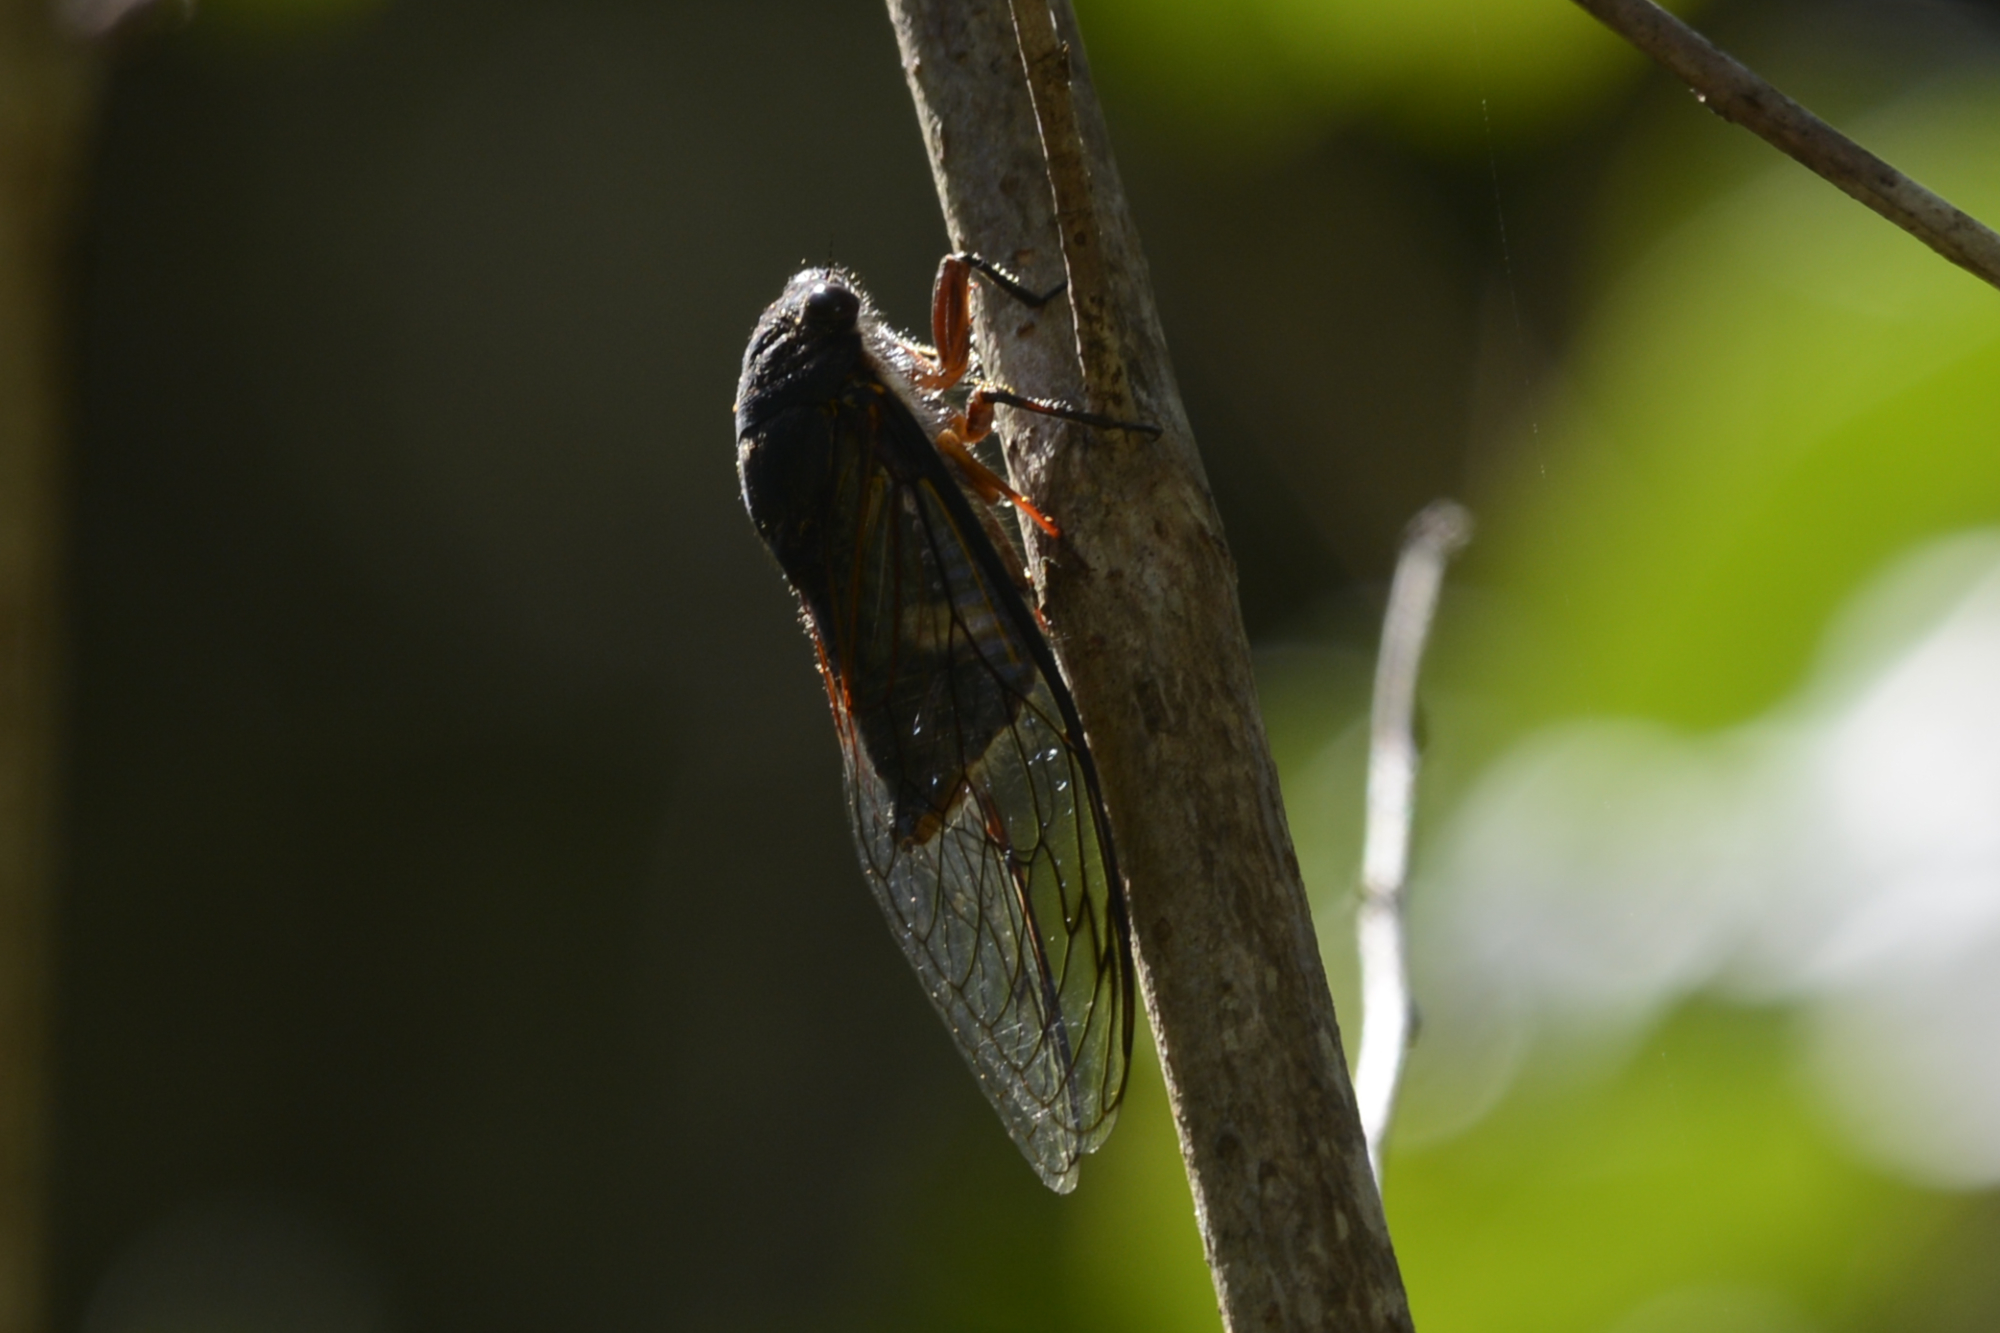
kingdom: Animalia
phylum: Arthropoda
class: Insecta
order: Hemiptera
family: Cicadidae
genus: Psaltoda
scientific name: Psaltoda plaga
